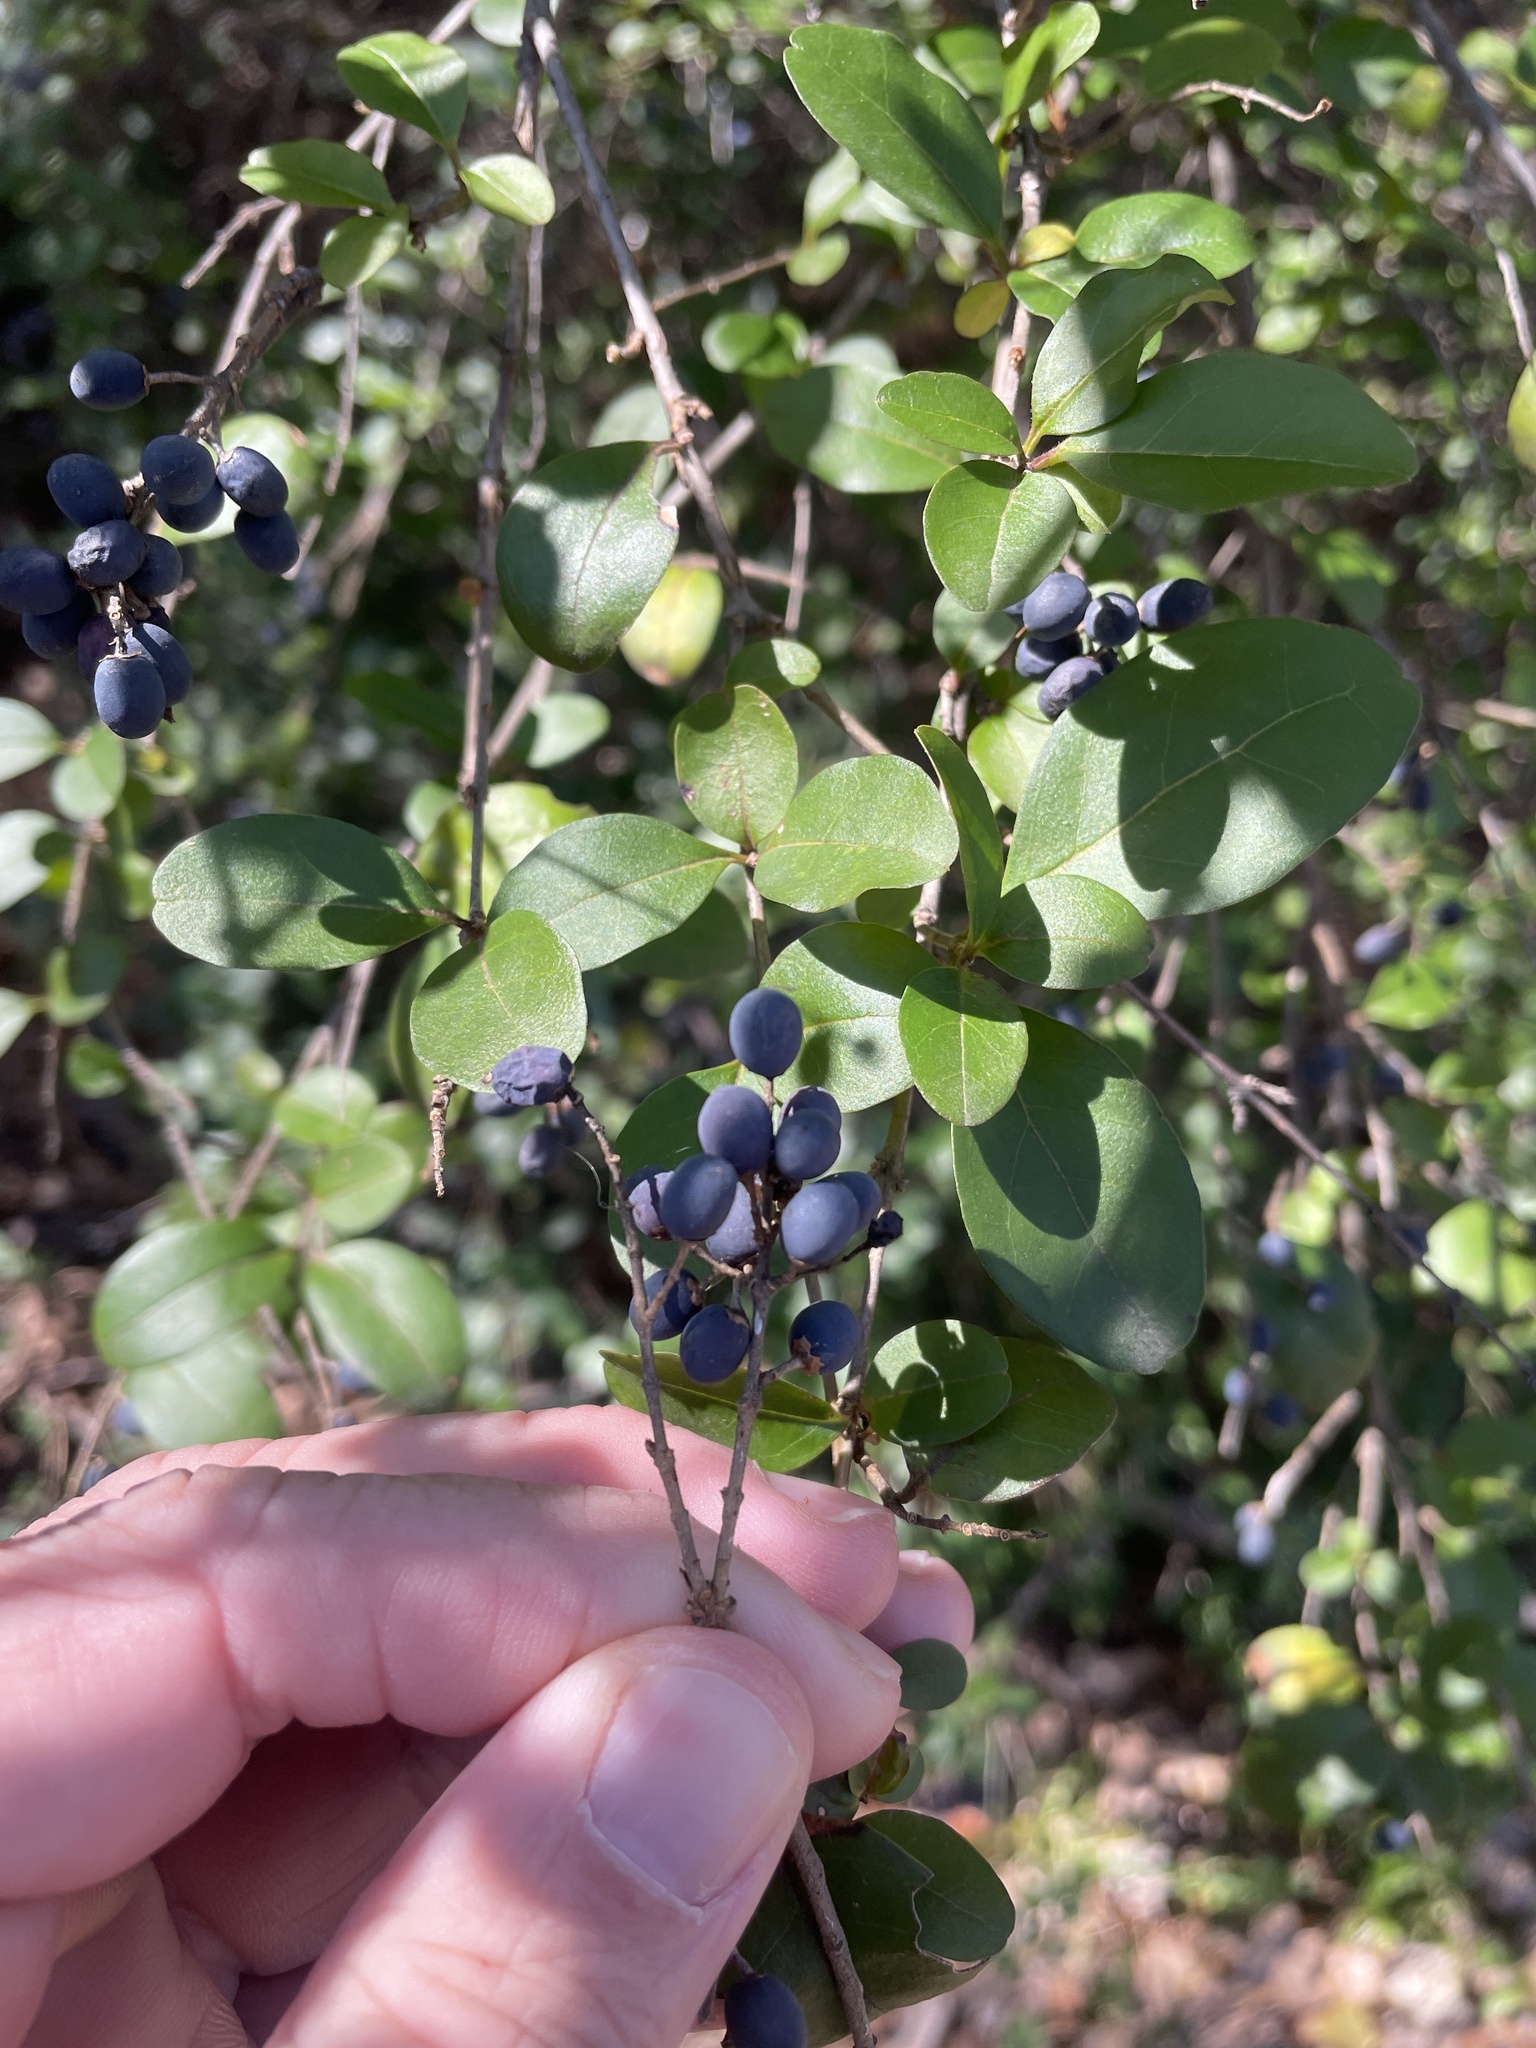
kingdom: Plantae
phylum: Tracheophyta
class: Magnoliopsida
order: Lamiales
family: Oleaceae
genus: Ligustrum
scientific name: Ligustrum sinense
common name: Chinese privet
